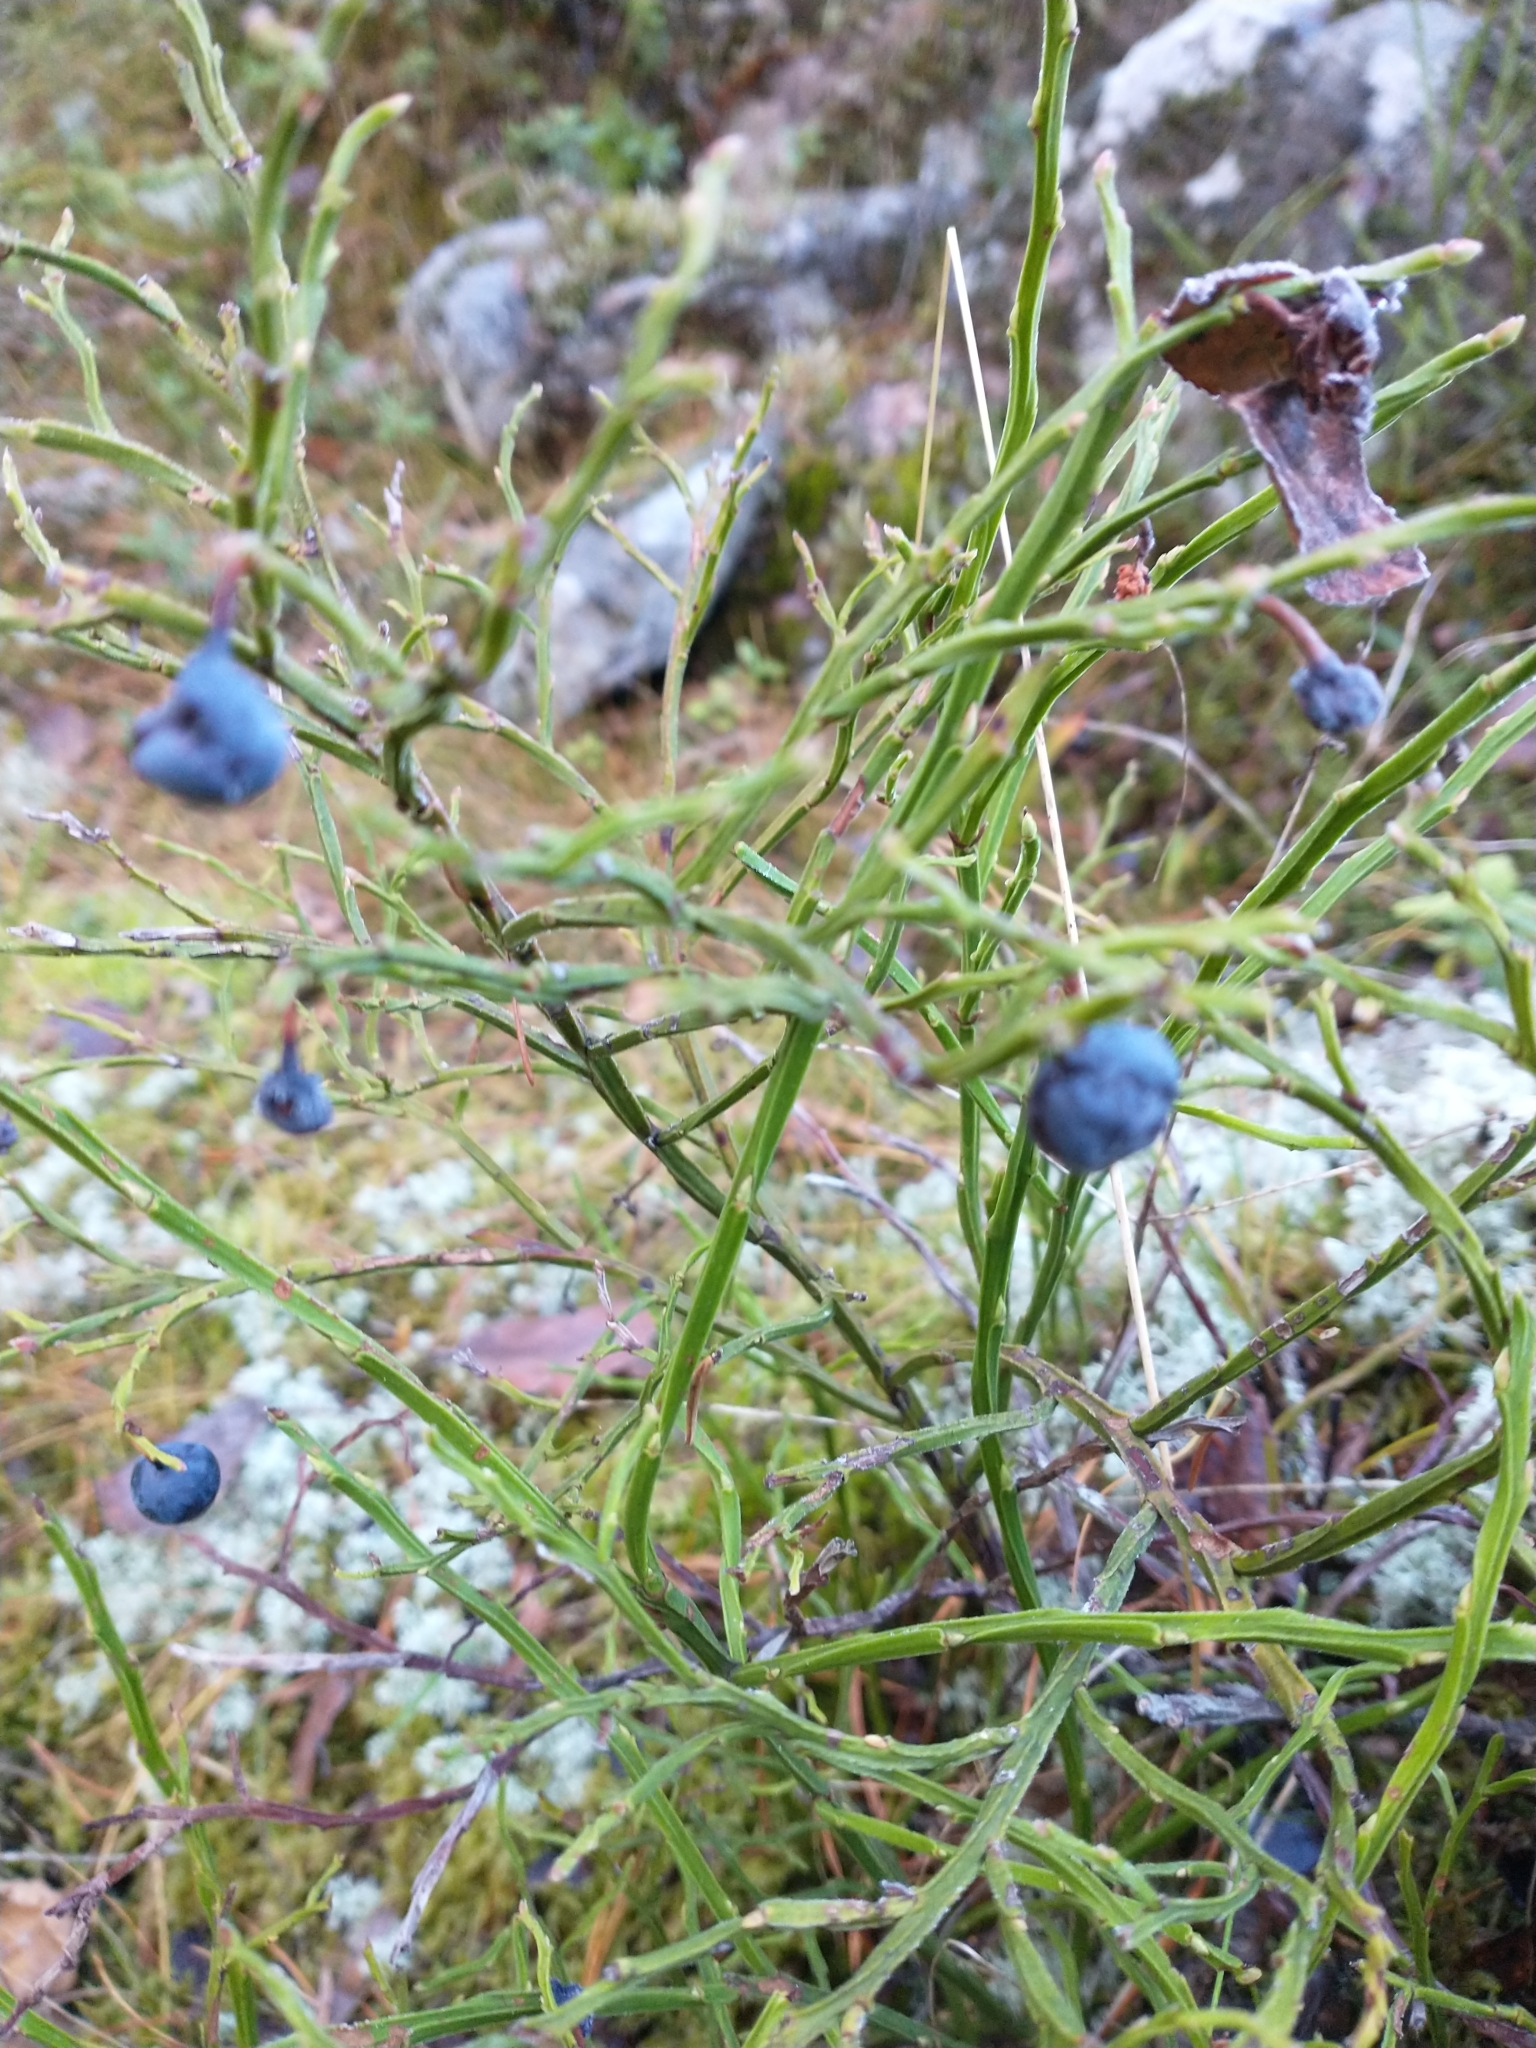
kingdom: Plantae
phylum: Tracheophyta
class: Magnoliopsida
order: Ericales
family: Ericaceae
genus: Vaccinium
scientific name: Vaccinium myrtillus
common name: Bilberry
